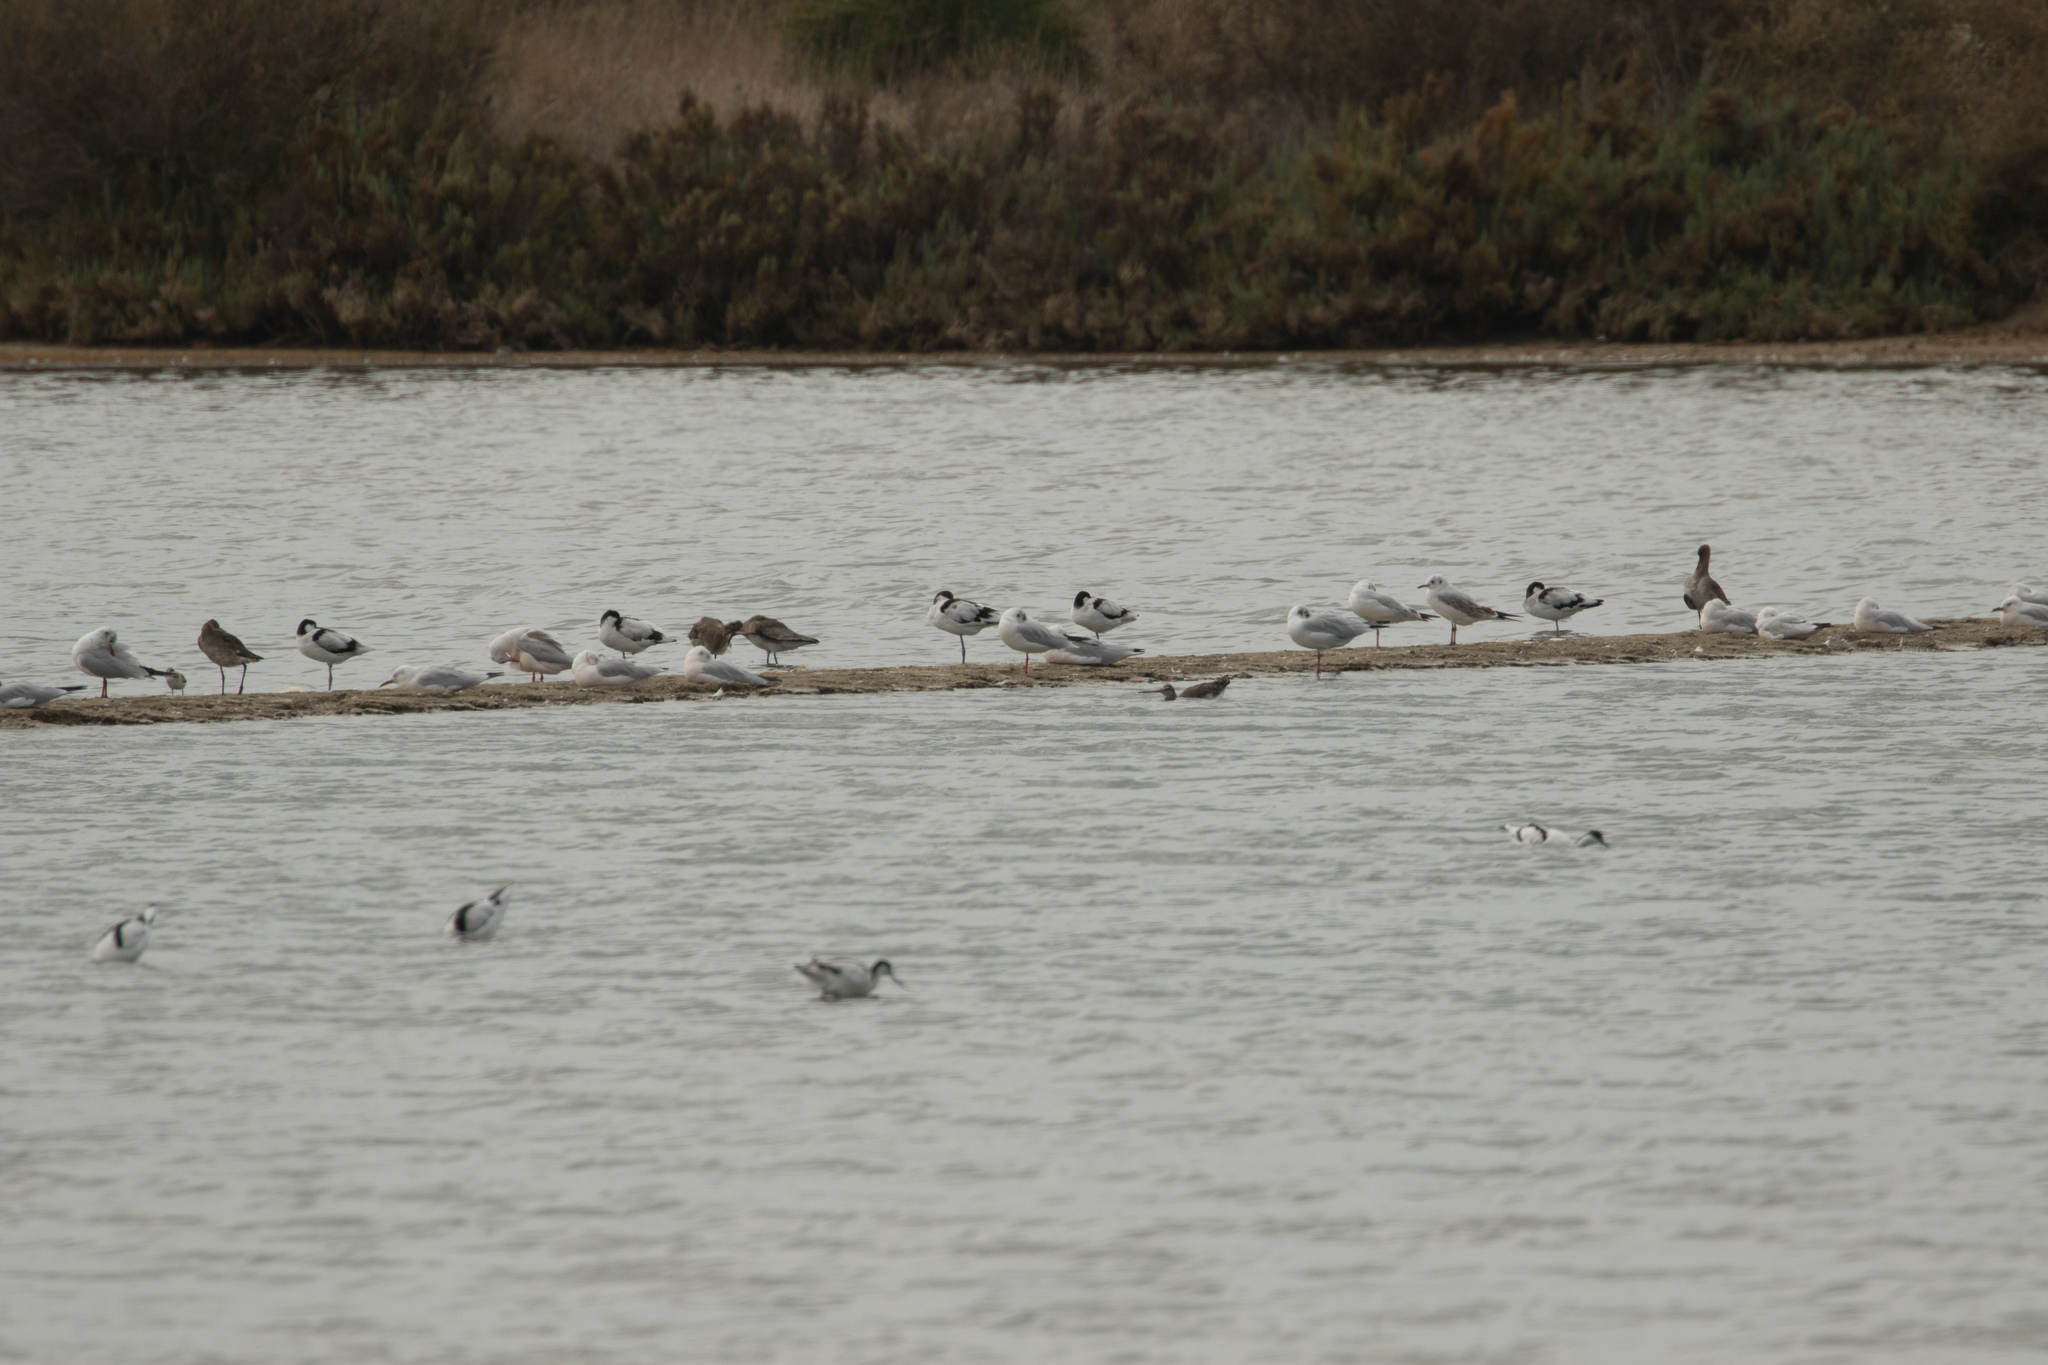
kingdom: Animalia
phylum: Chordata
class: Aves
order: Charadriiformes
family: Laridae
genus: Chroicocephalus
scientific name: Chroicocephalus genei
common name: Slender-billed gull
